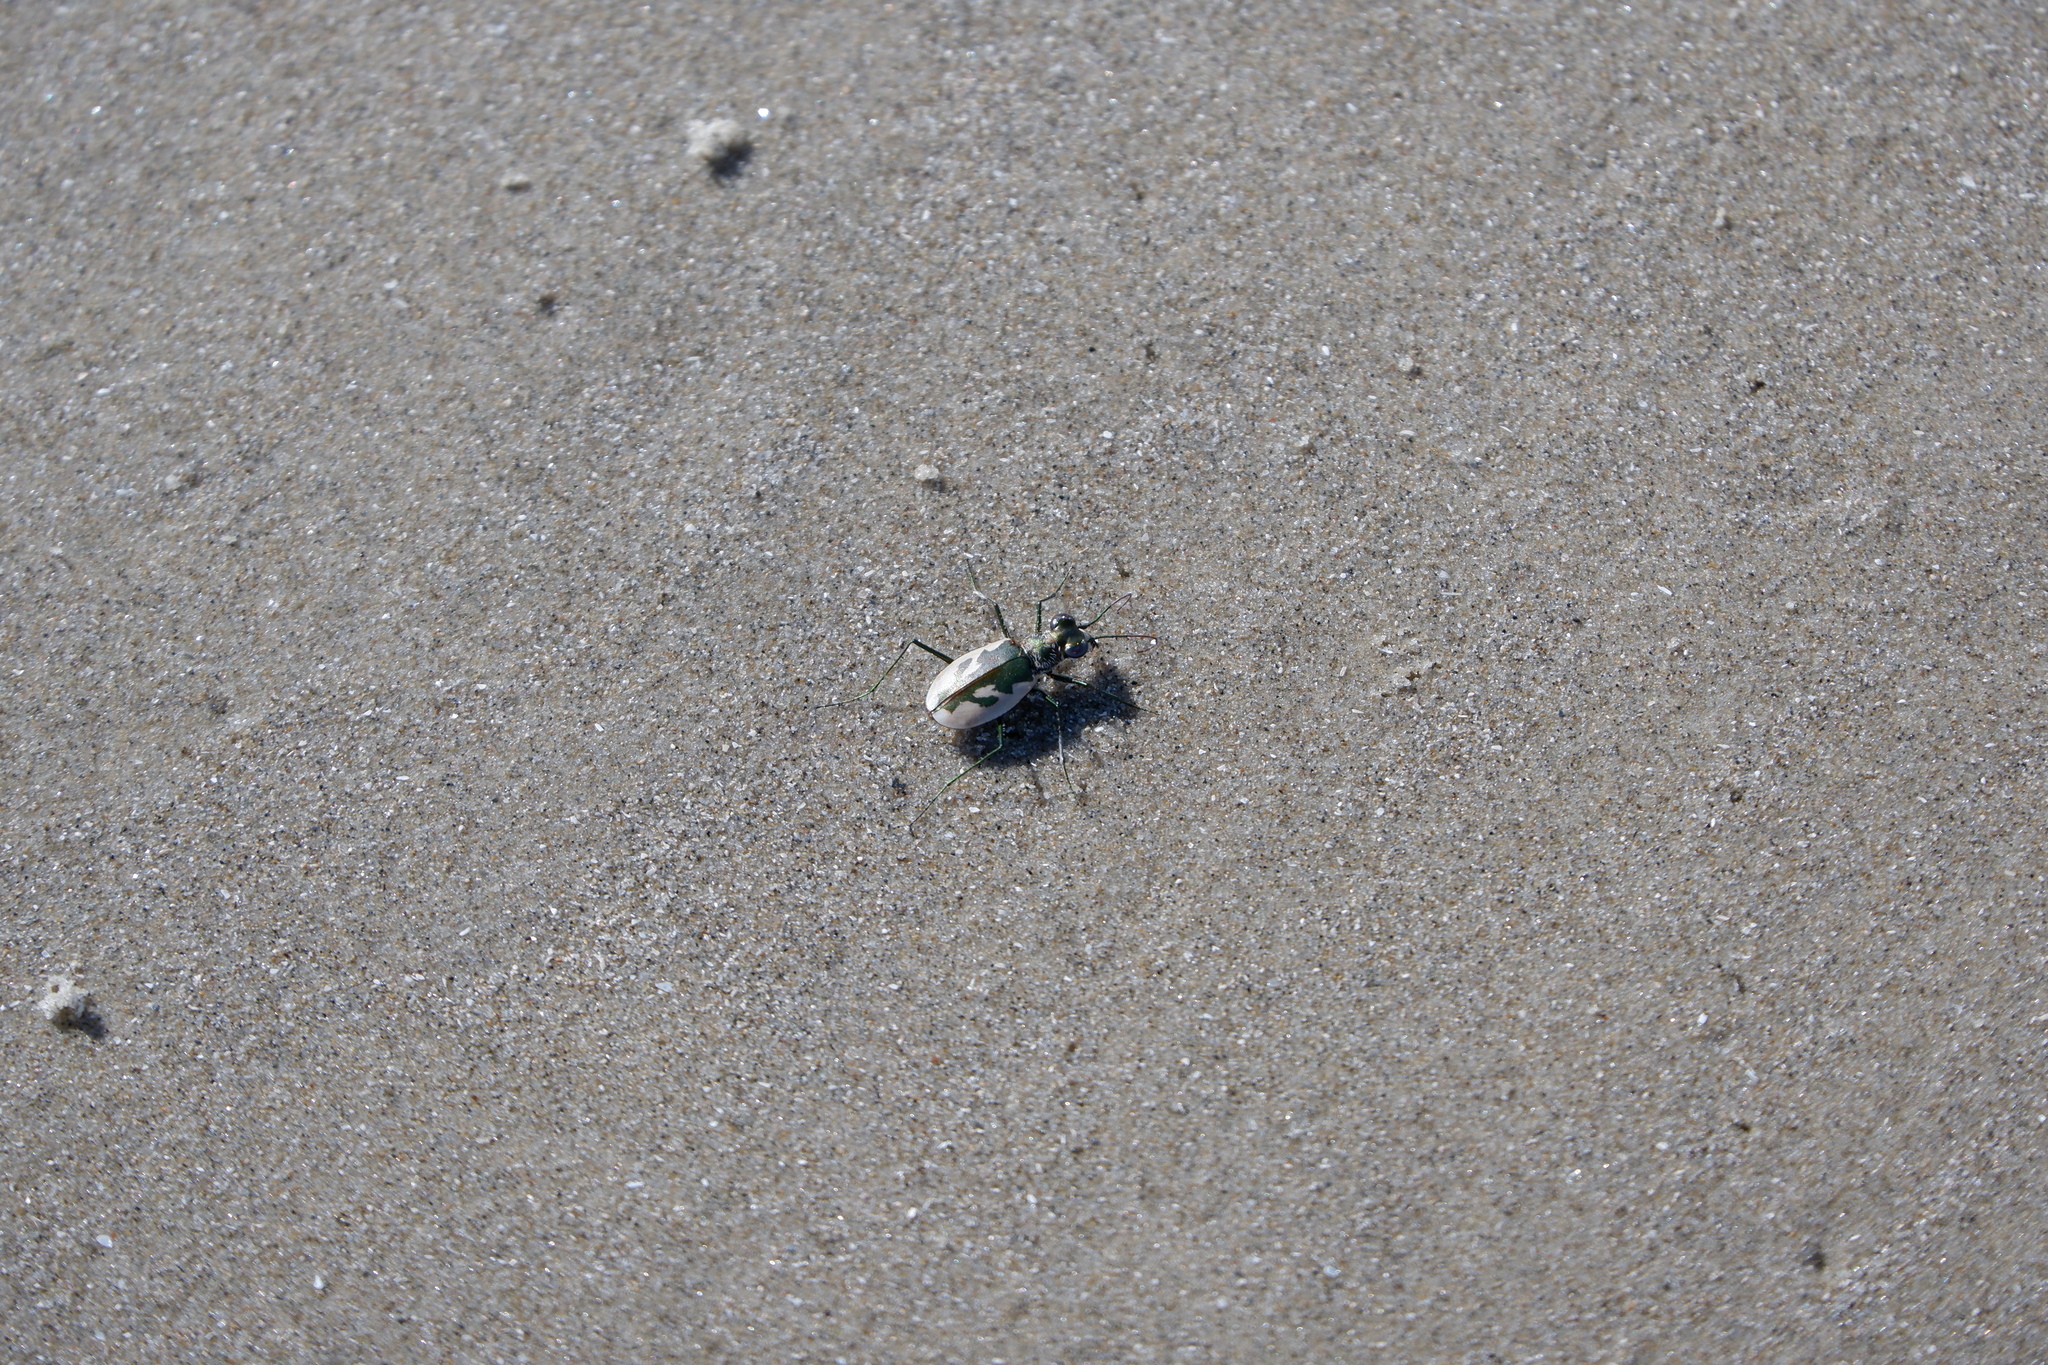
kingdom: Animalia
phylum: Arthropoda
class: Insecta
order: Coleoptera
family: Carabidae
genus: Eunota
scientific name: Eunota pamphila
